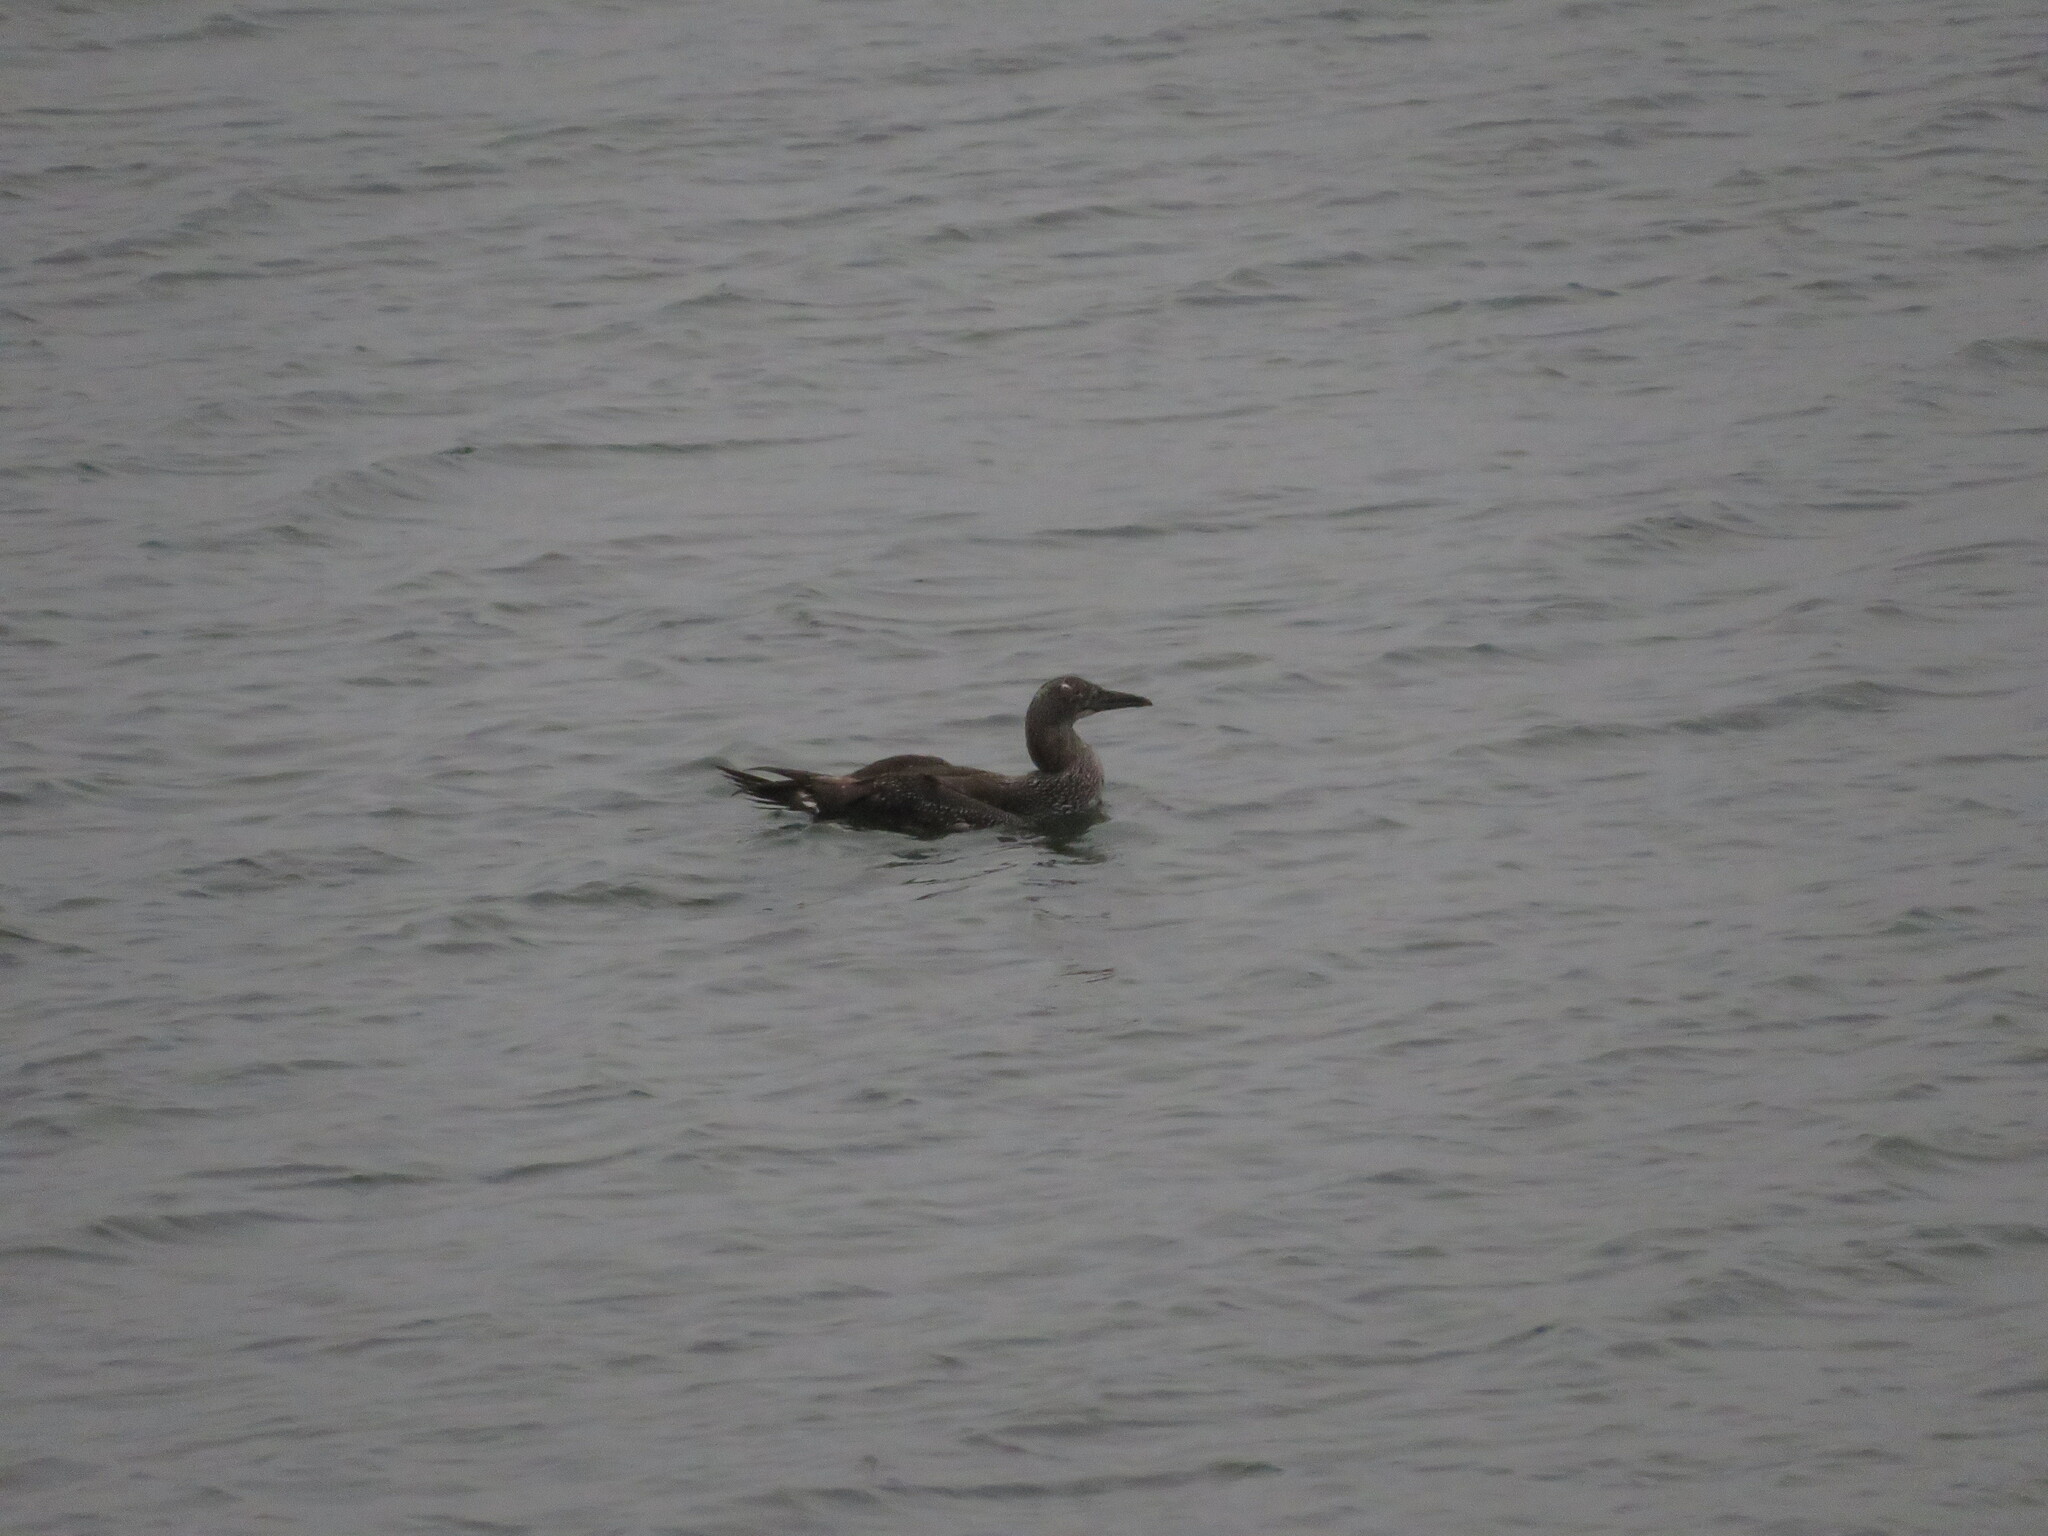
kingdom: Animalia
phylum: Chordata
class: Aves
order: Suliformes
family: Sulidae
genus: Morus
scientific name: Morus bassanus
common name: Northern gannet
